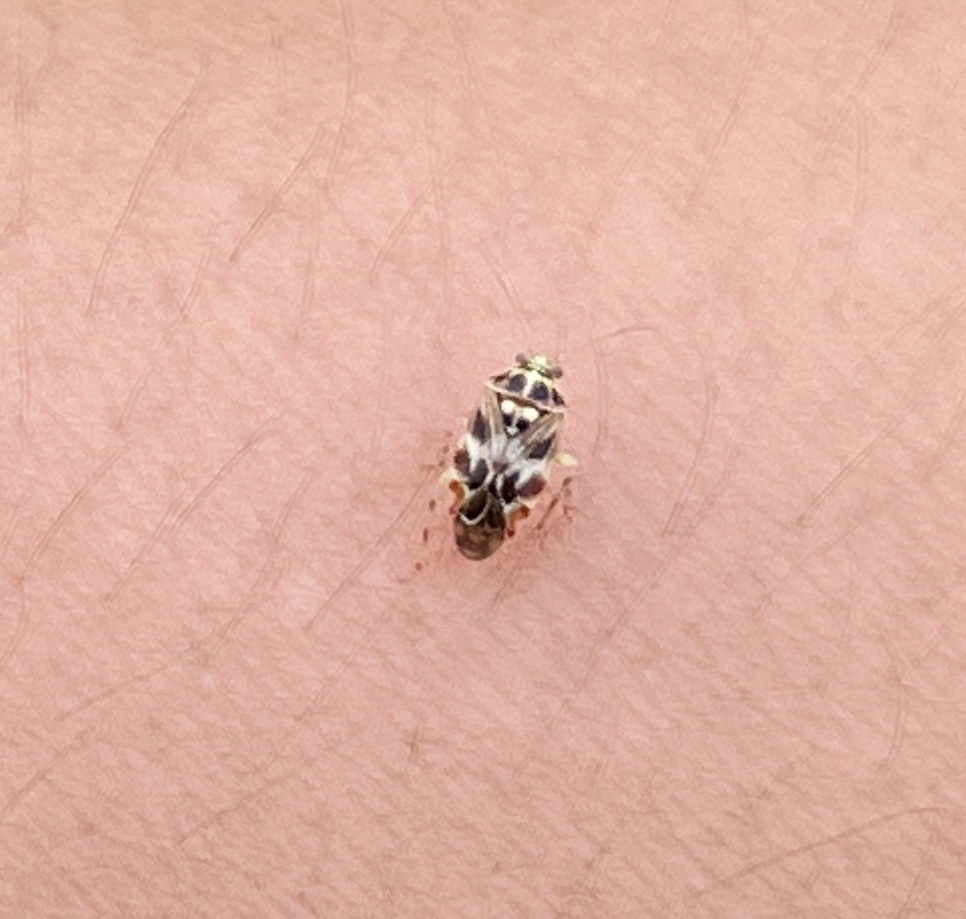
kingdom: Animalia
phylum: Arthropoda
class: Insecta
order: Hemiptera
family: Miridae
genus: Tropidosteptes
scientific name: Tropidosteptes quercicola
